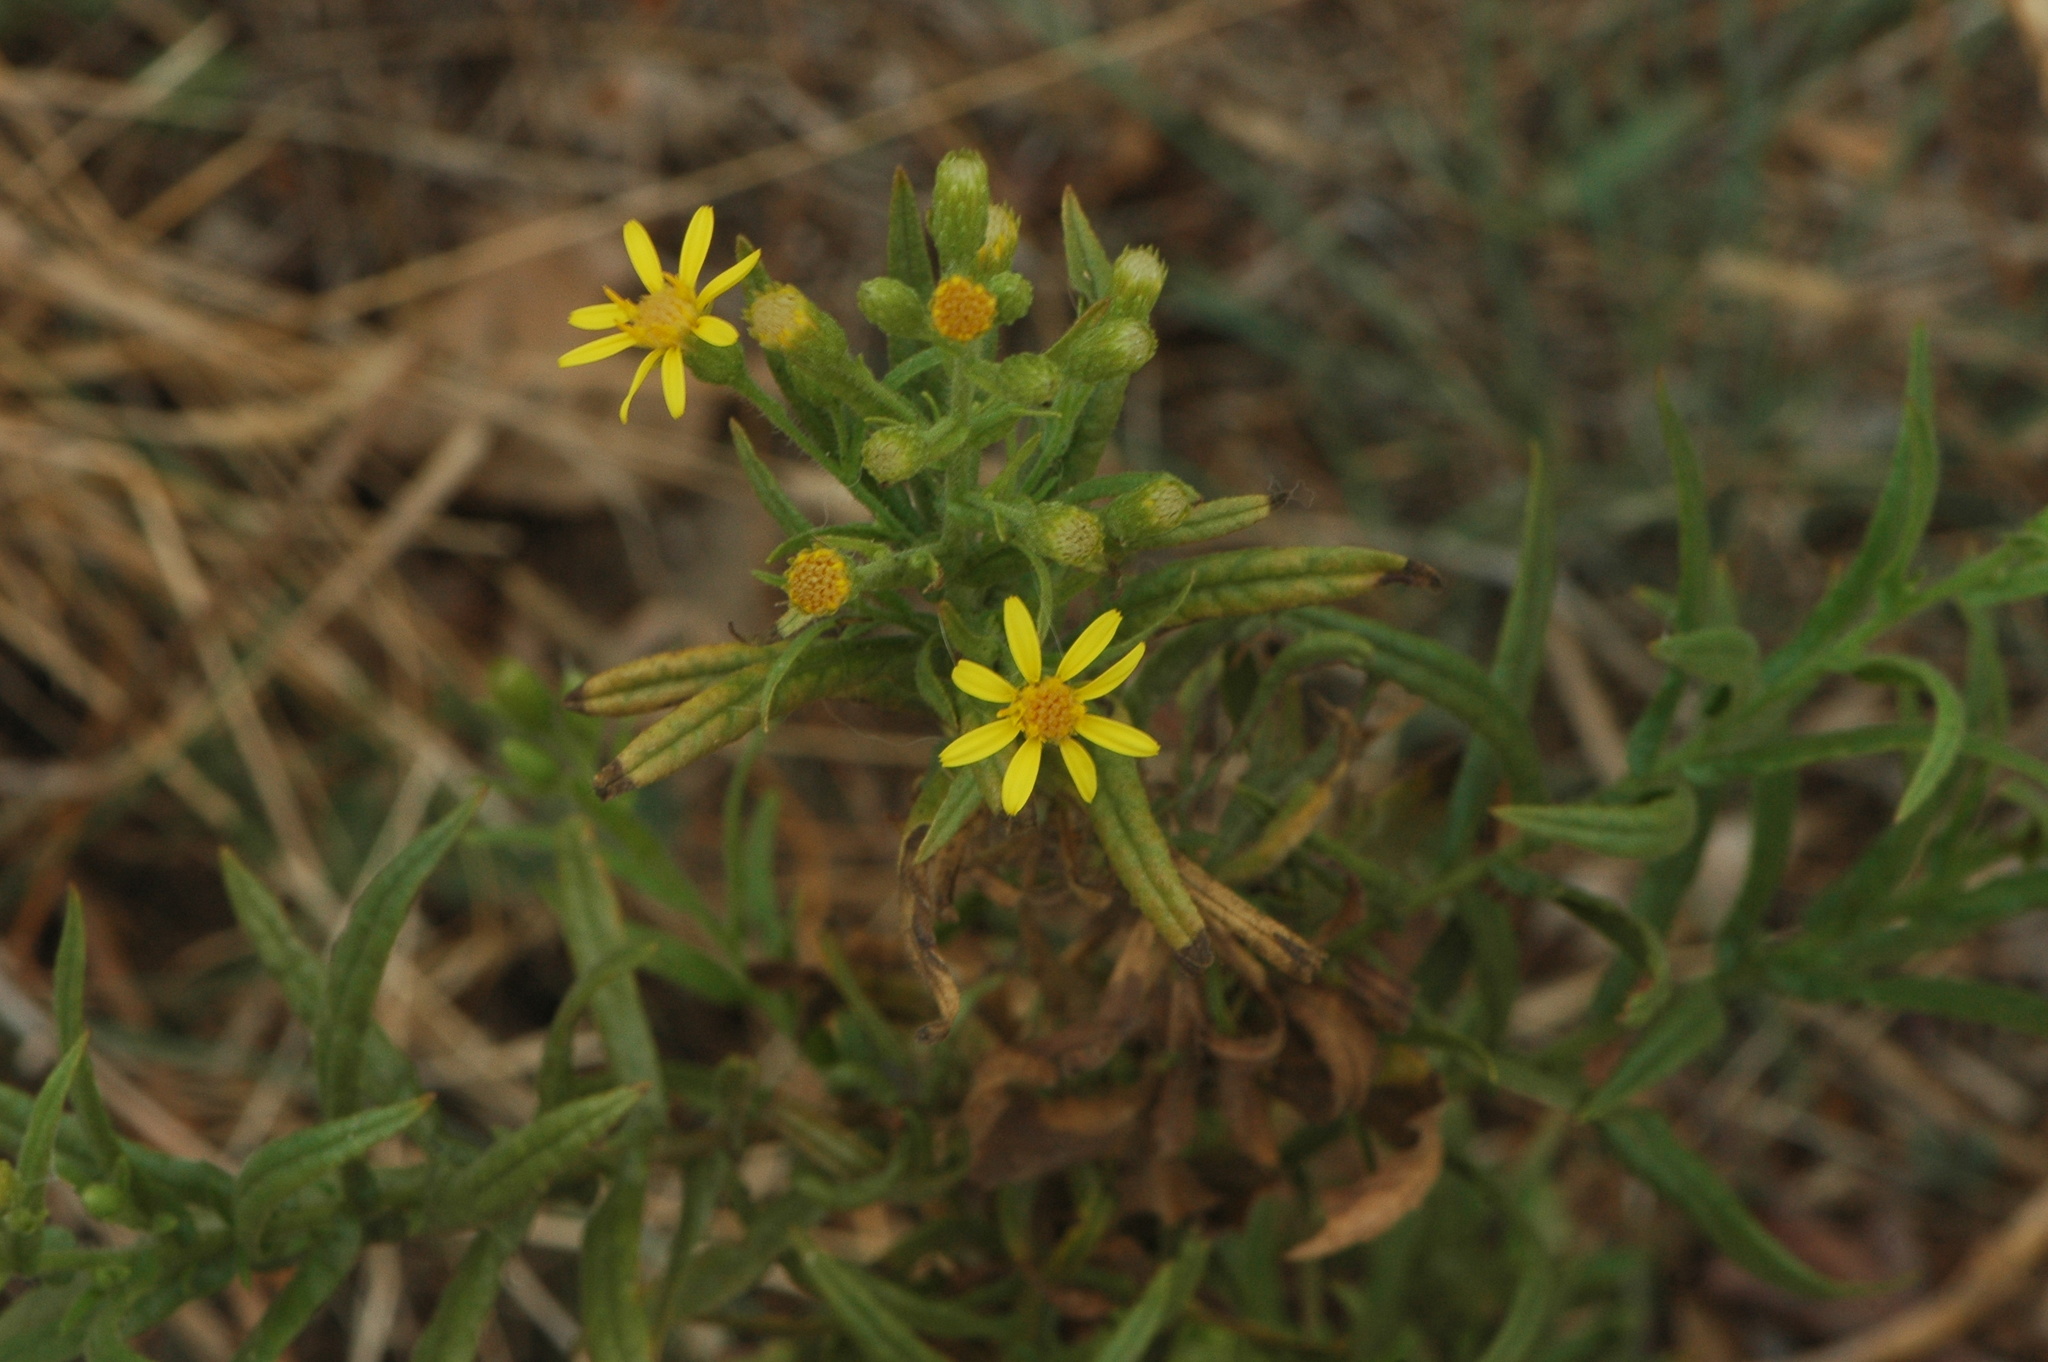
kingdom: Plantae
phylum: Tracheophyta
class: Magnoliopsida
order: Asterales
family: Asteraceae
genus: Dittrichia
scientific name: Dittrichia viscosa
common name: Woody fleabane
